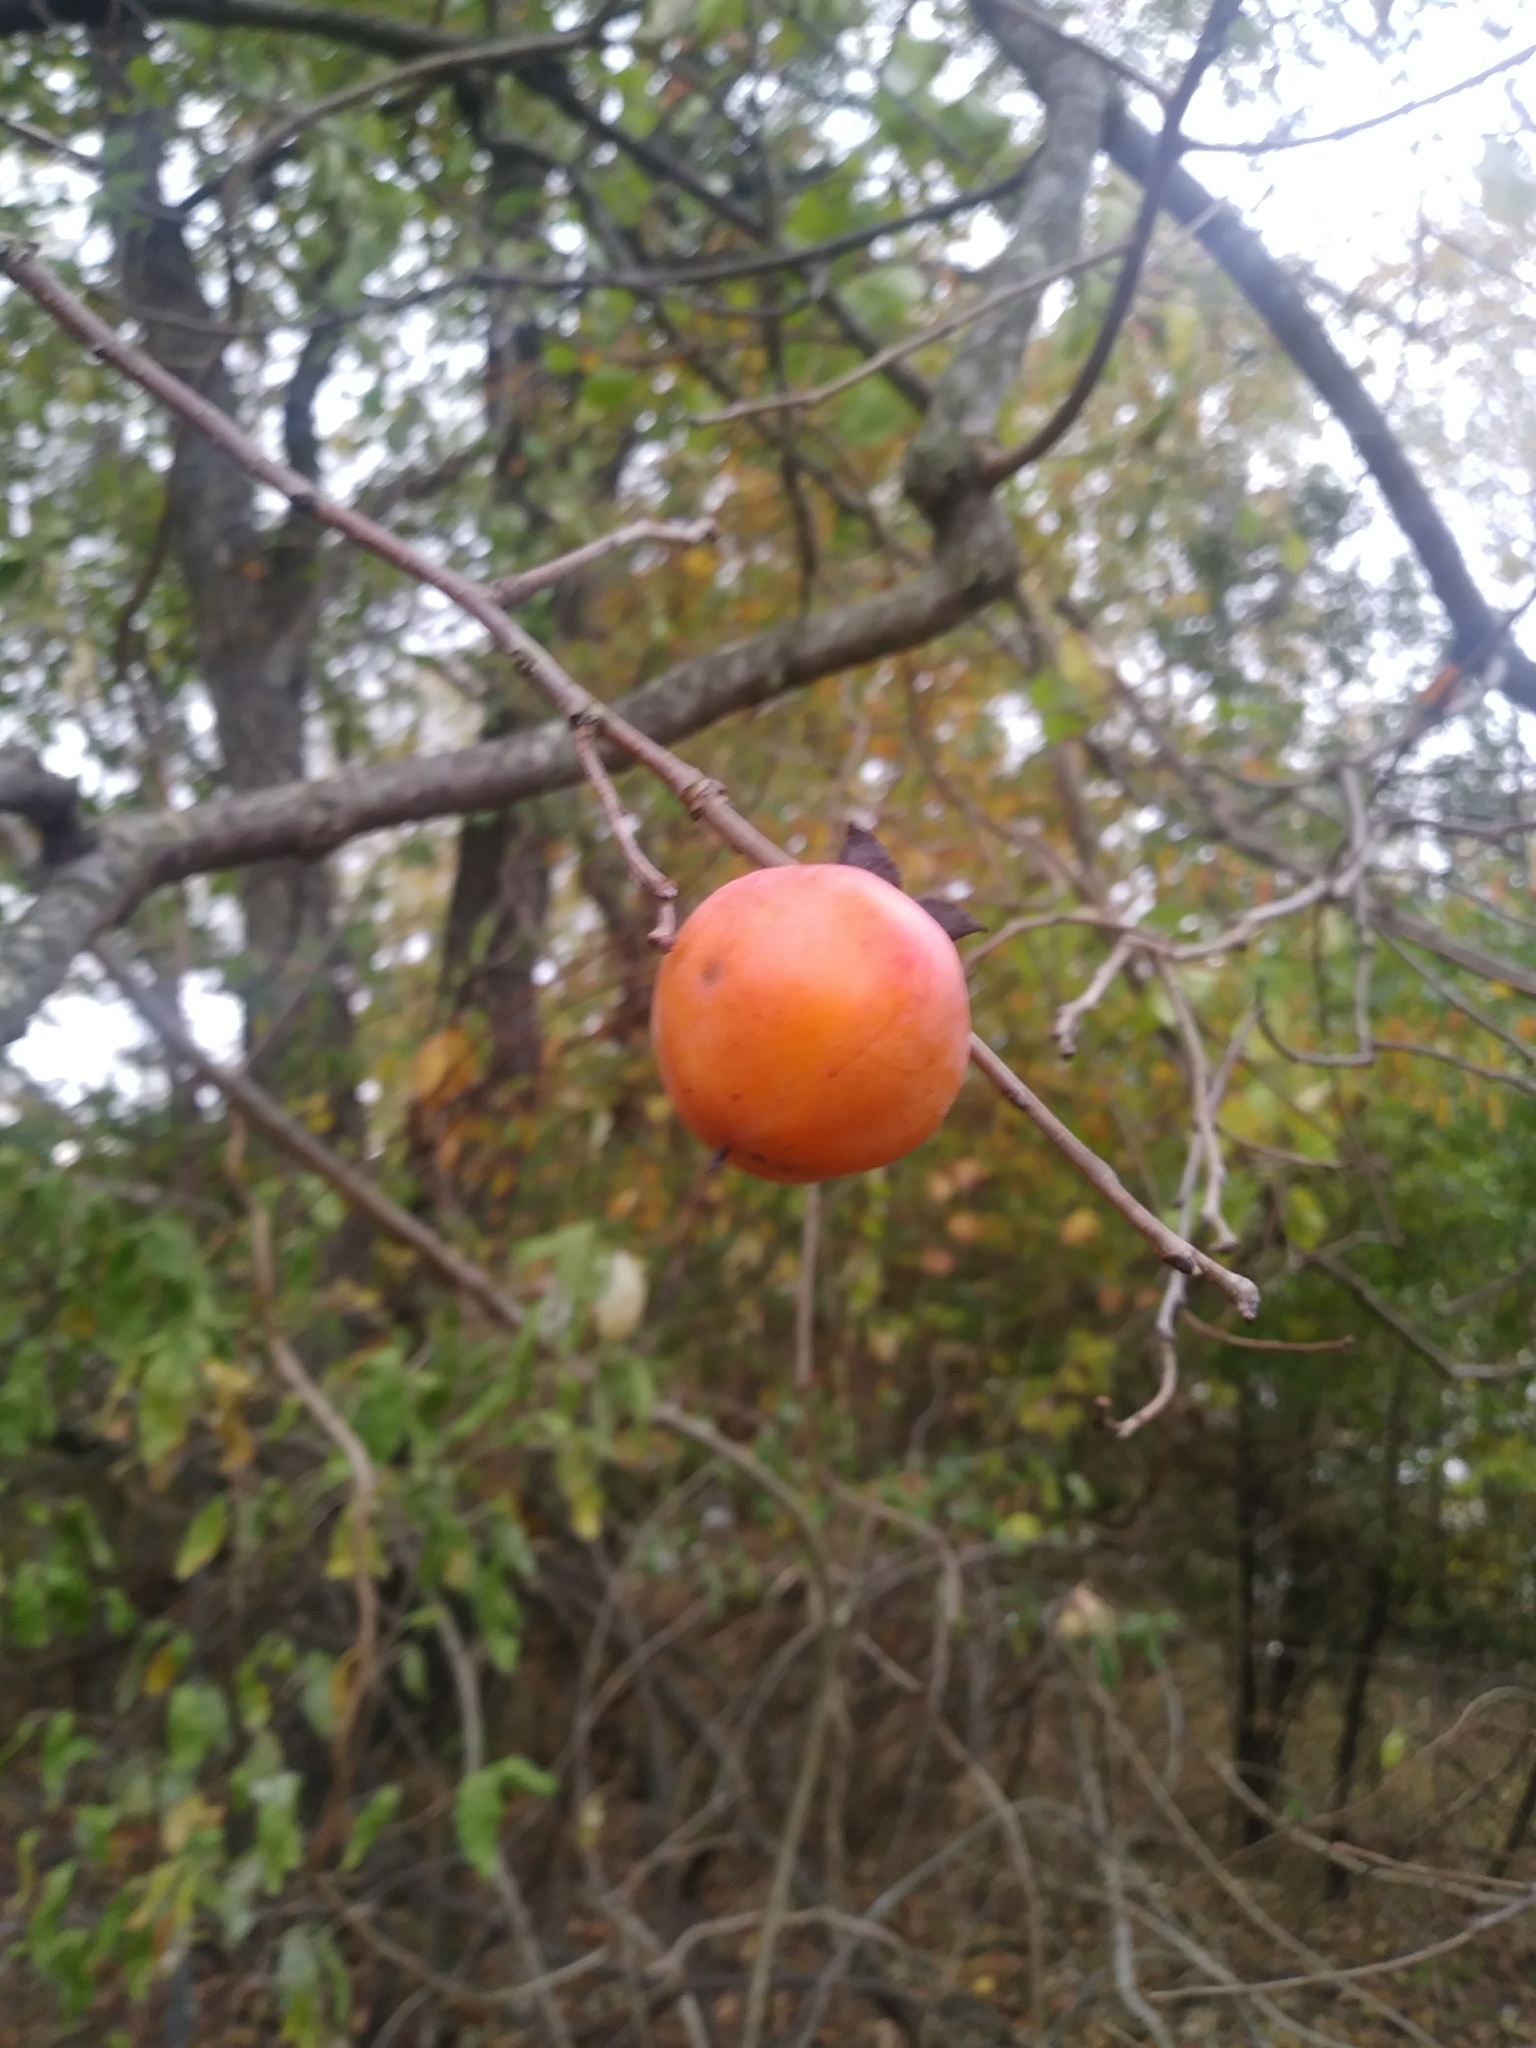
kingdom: Plantae
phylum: Tracheophyta
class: Magnoliopsida
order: Ericales
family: Ebenaceae
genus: Diospyros
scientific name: Diospyros virginiana
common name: Persimmon
